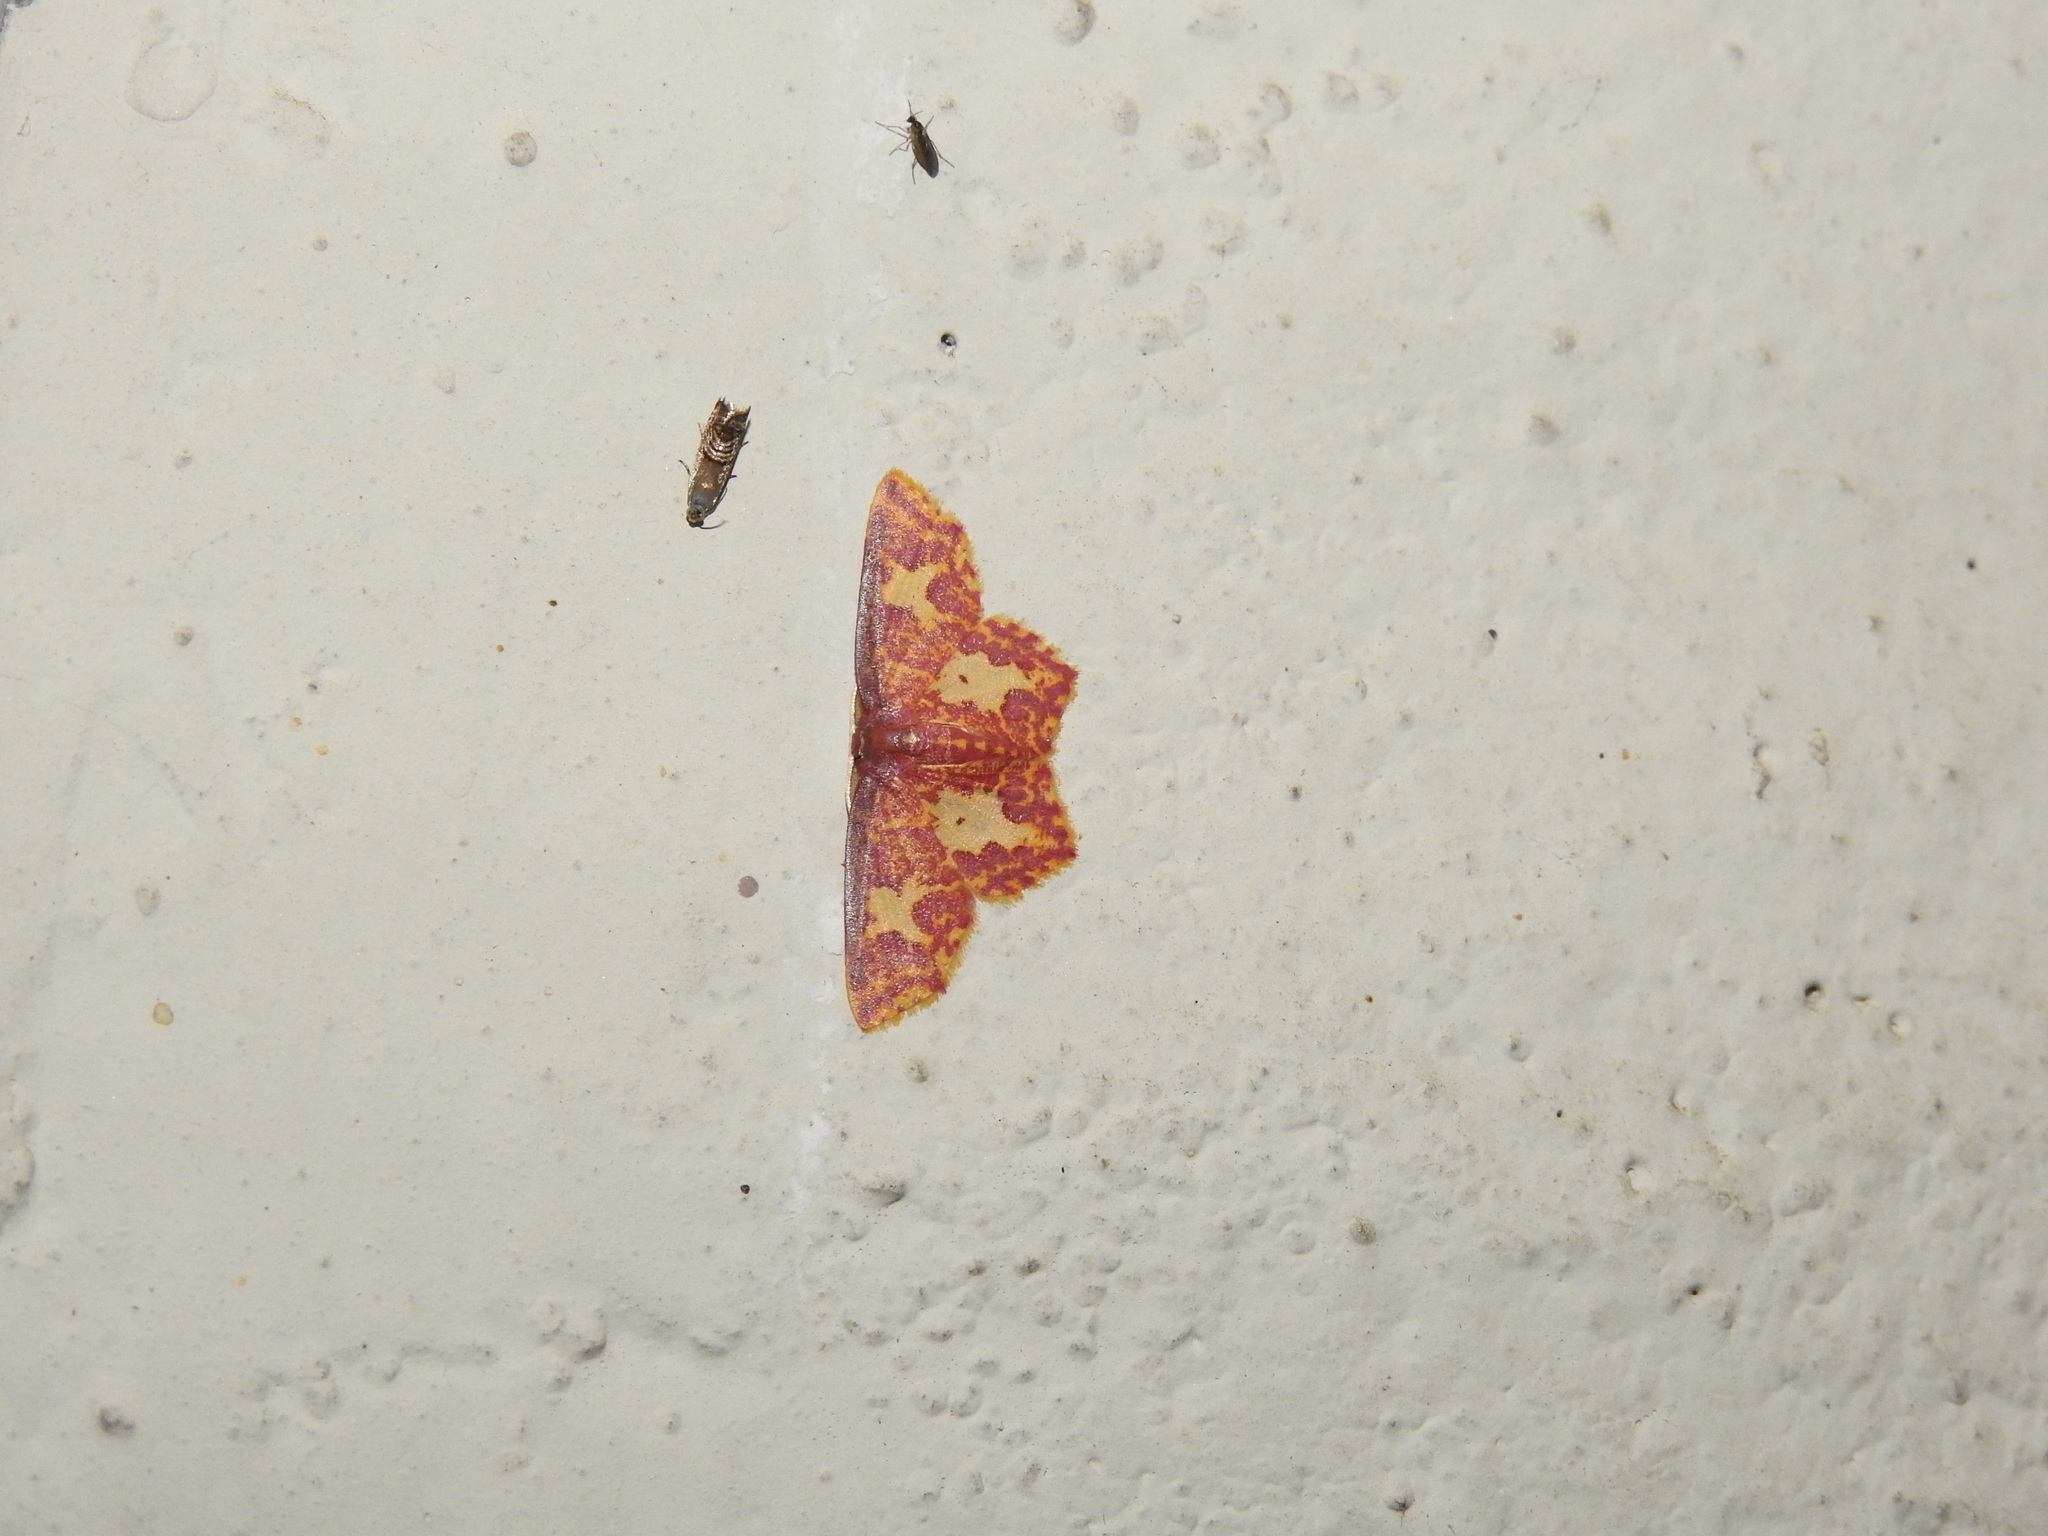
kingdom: Animalia
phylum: Arthropoda
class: Insecta
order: Lepidoptera
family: Geometridae
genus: Chrysocraspeda
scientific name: Chrysocraspeda faganaria
